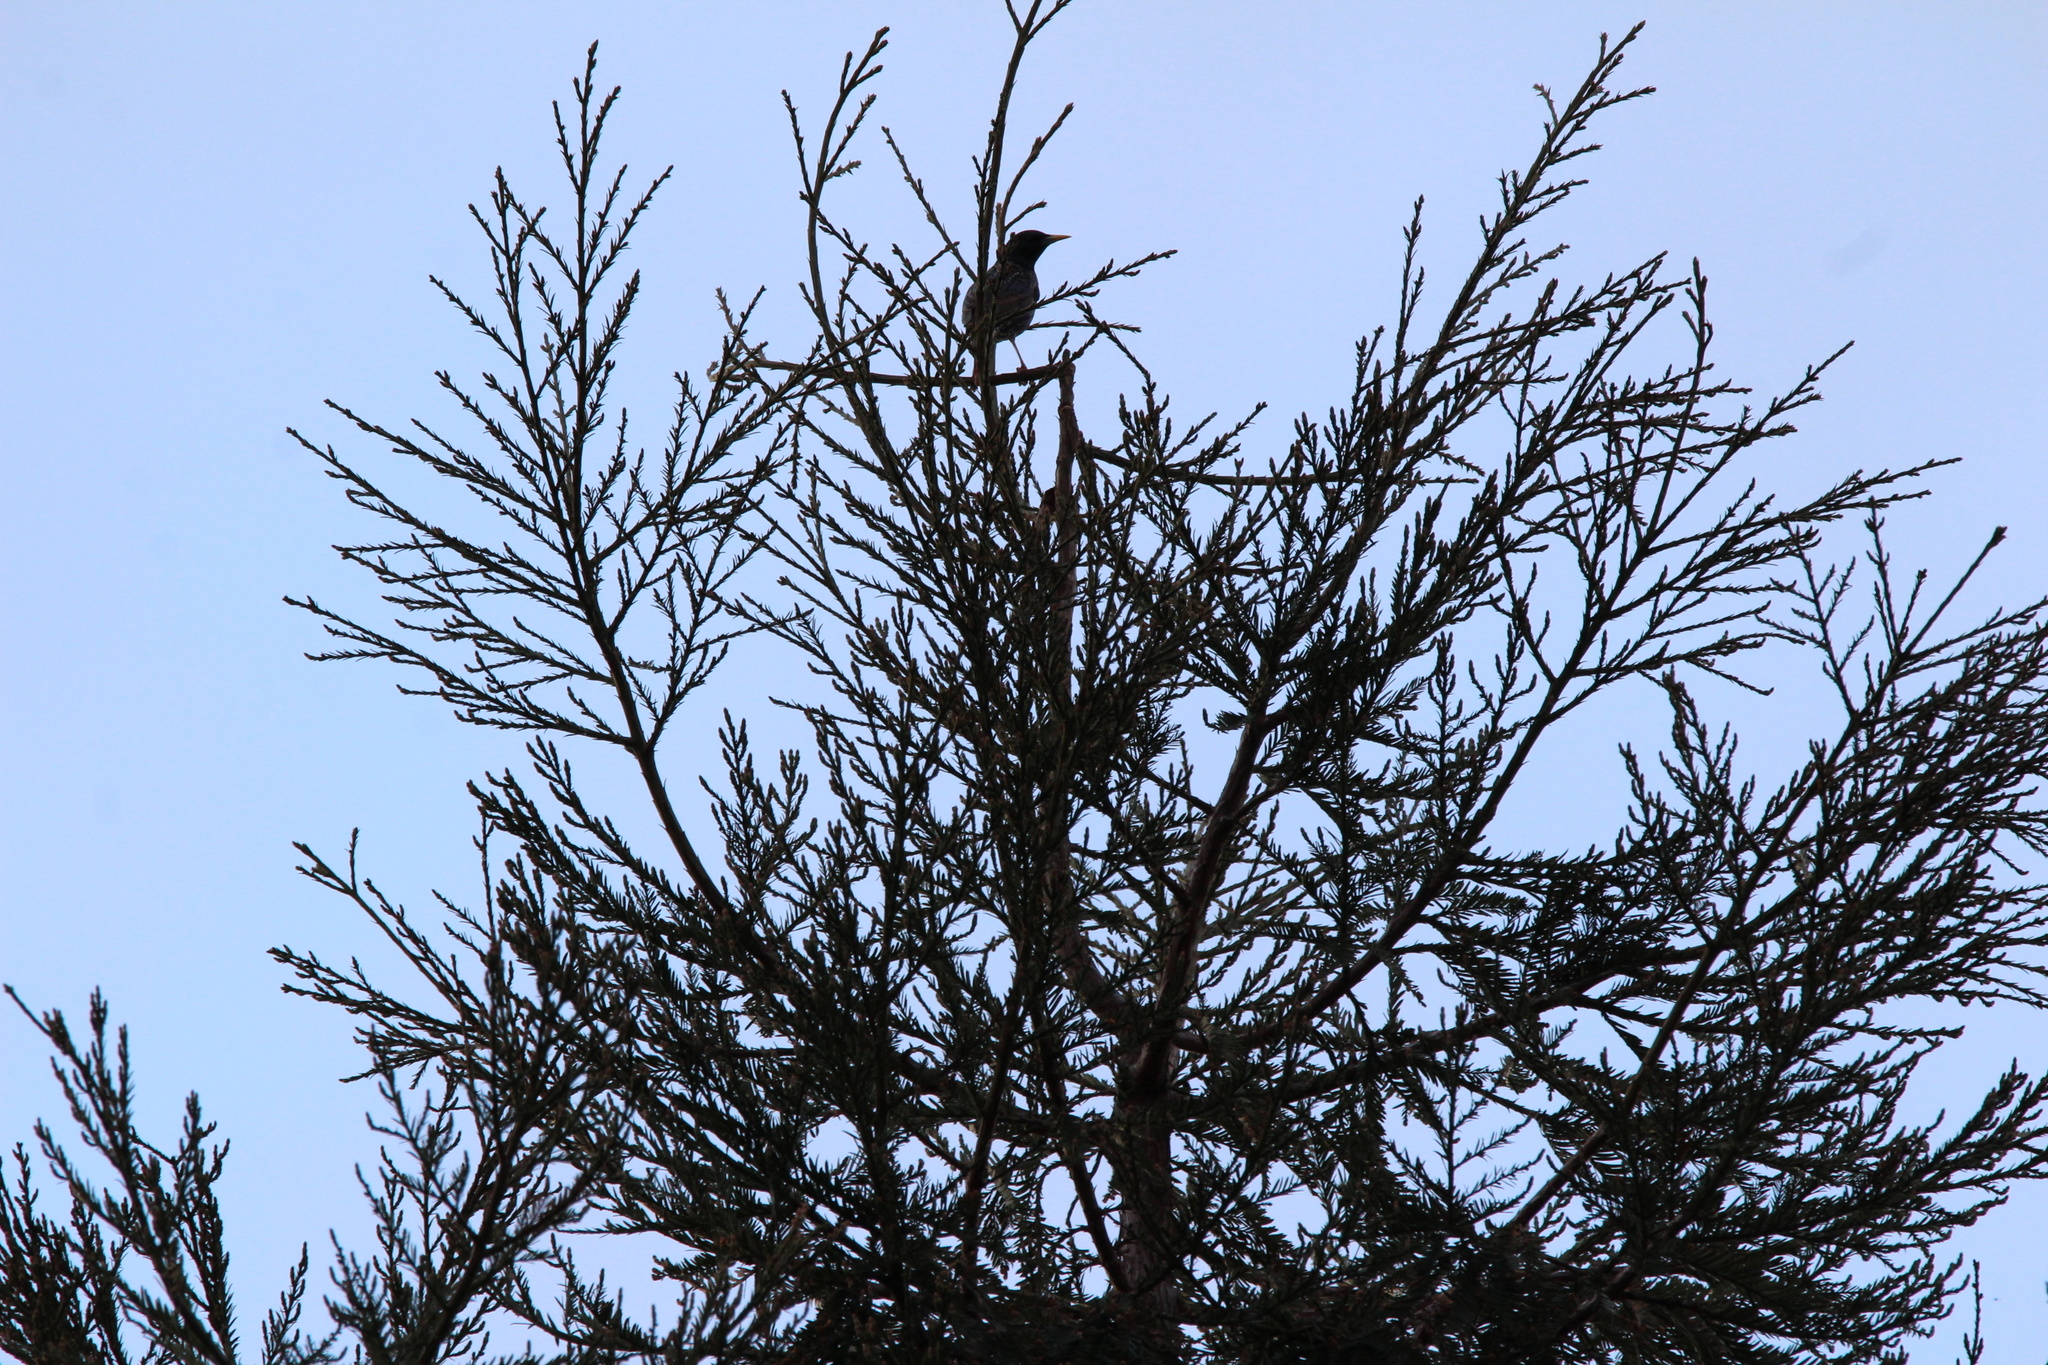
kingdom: Animalia
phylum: Chordata
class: Aves
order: Passeriformes
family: Sturnidae
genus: Sturnus
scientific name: Sturnus vulgaris
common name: Common starling
